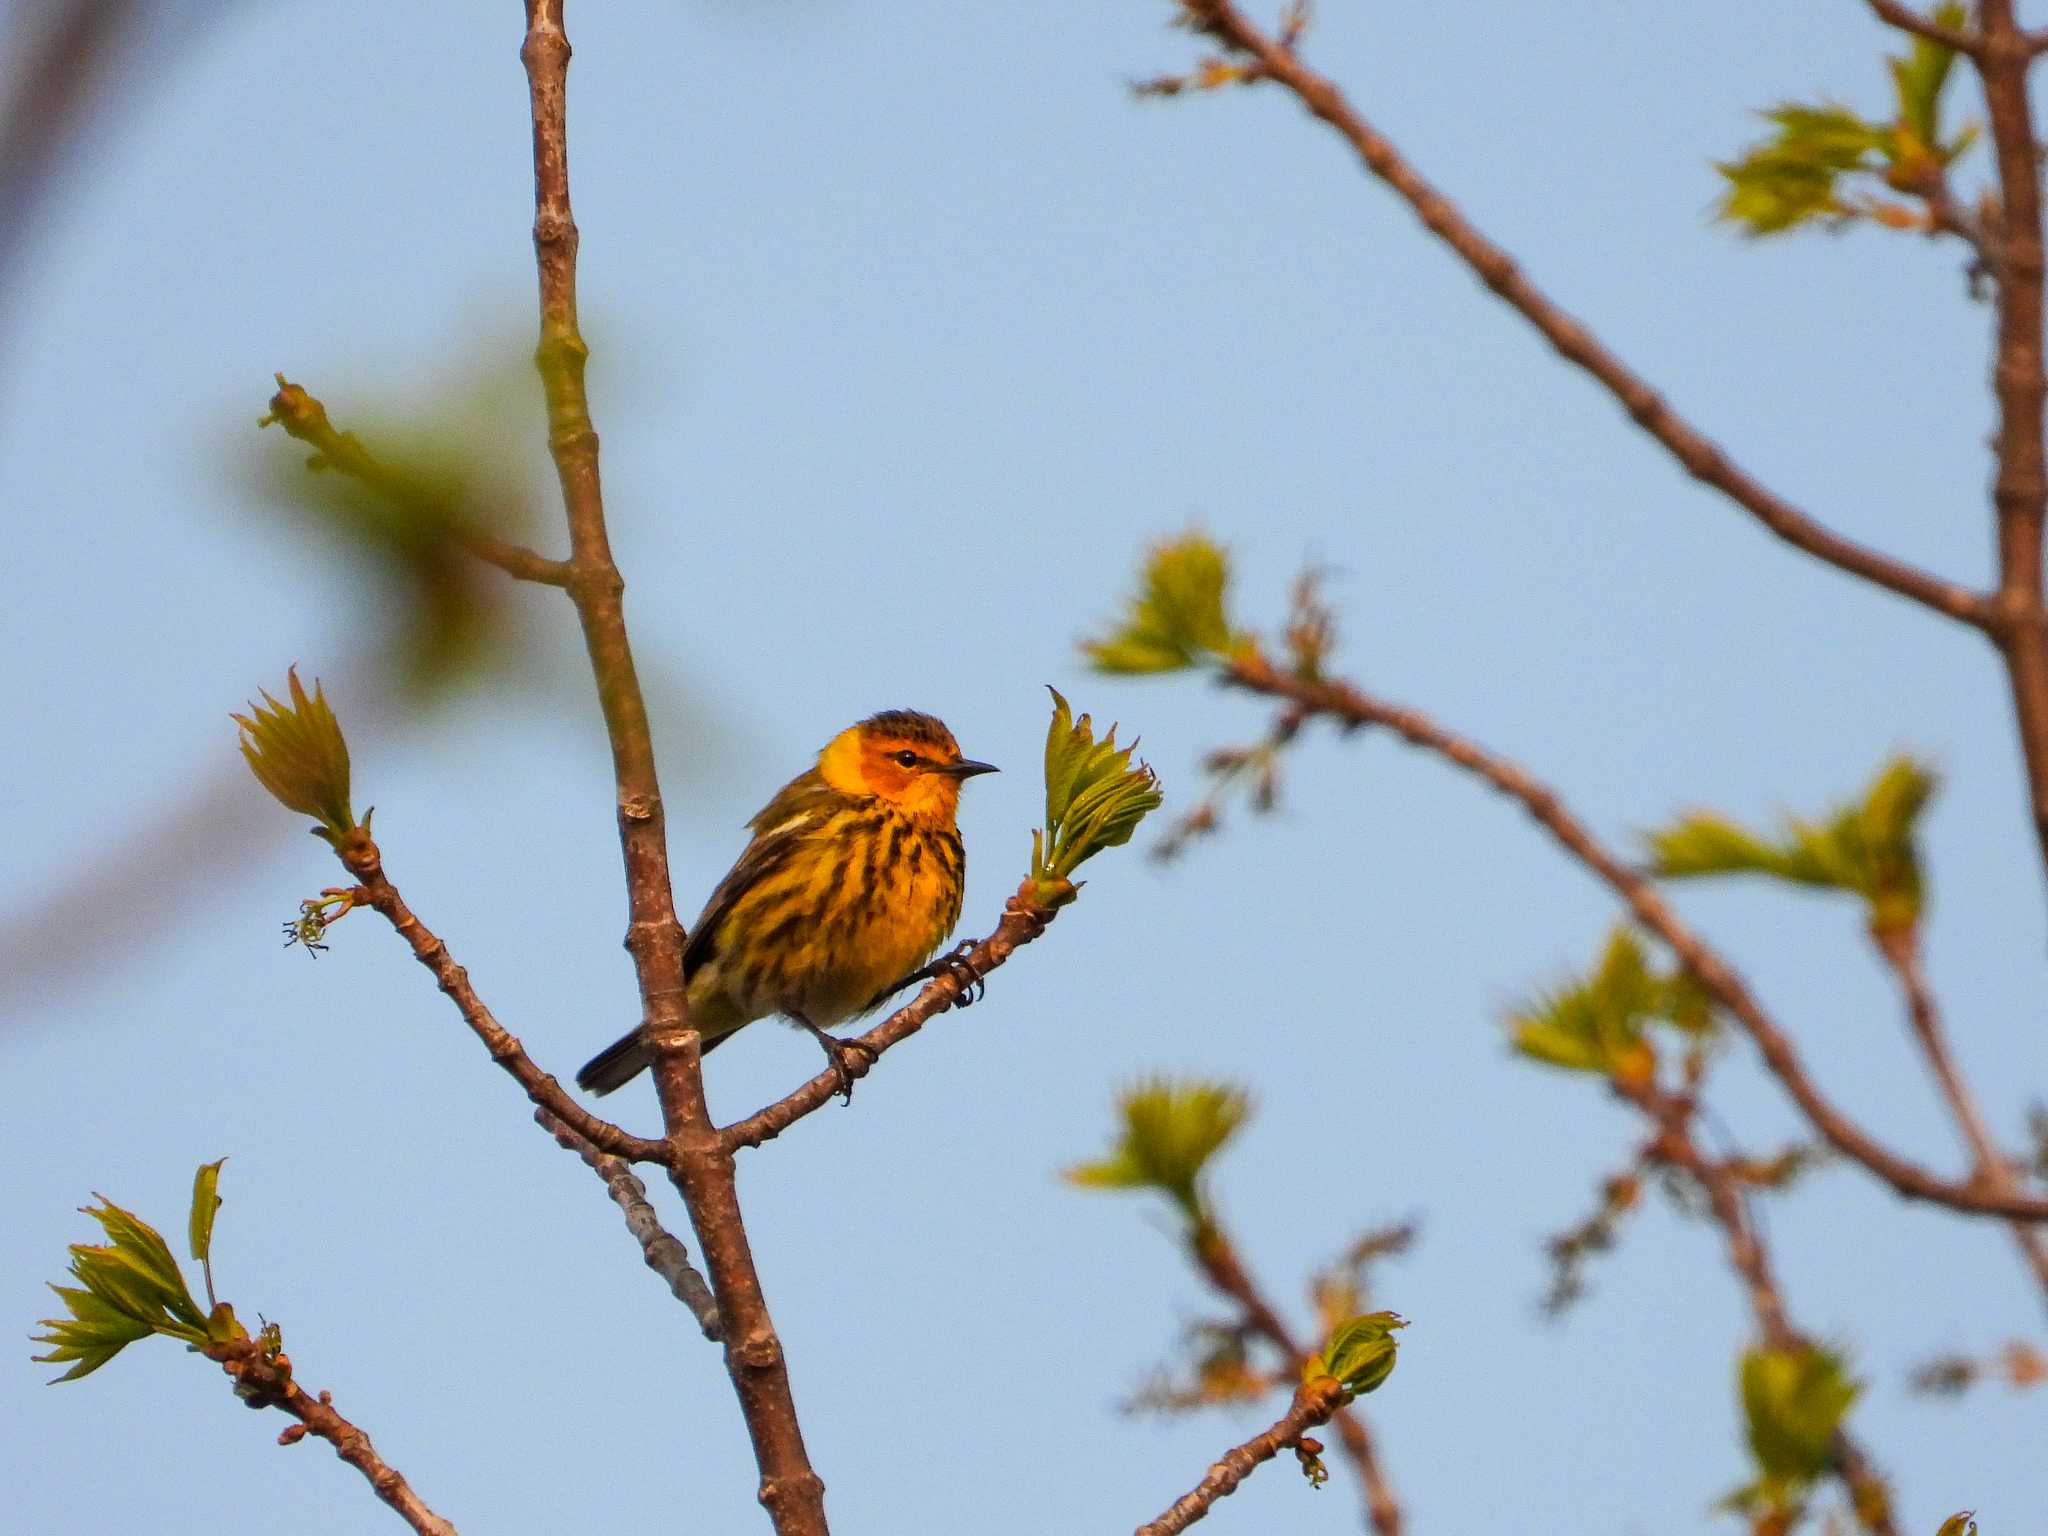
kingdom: Animalia
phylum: Chordata
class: Aves
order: Passeriformes
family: Parulidae
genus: Setophaga
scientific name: Setophaga tigrina
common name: Cape may warbler
